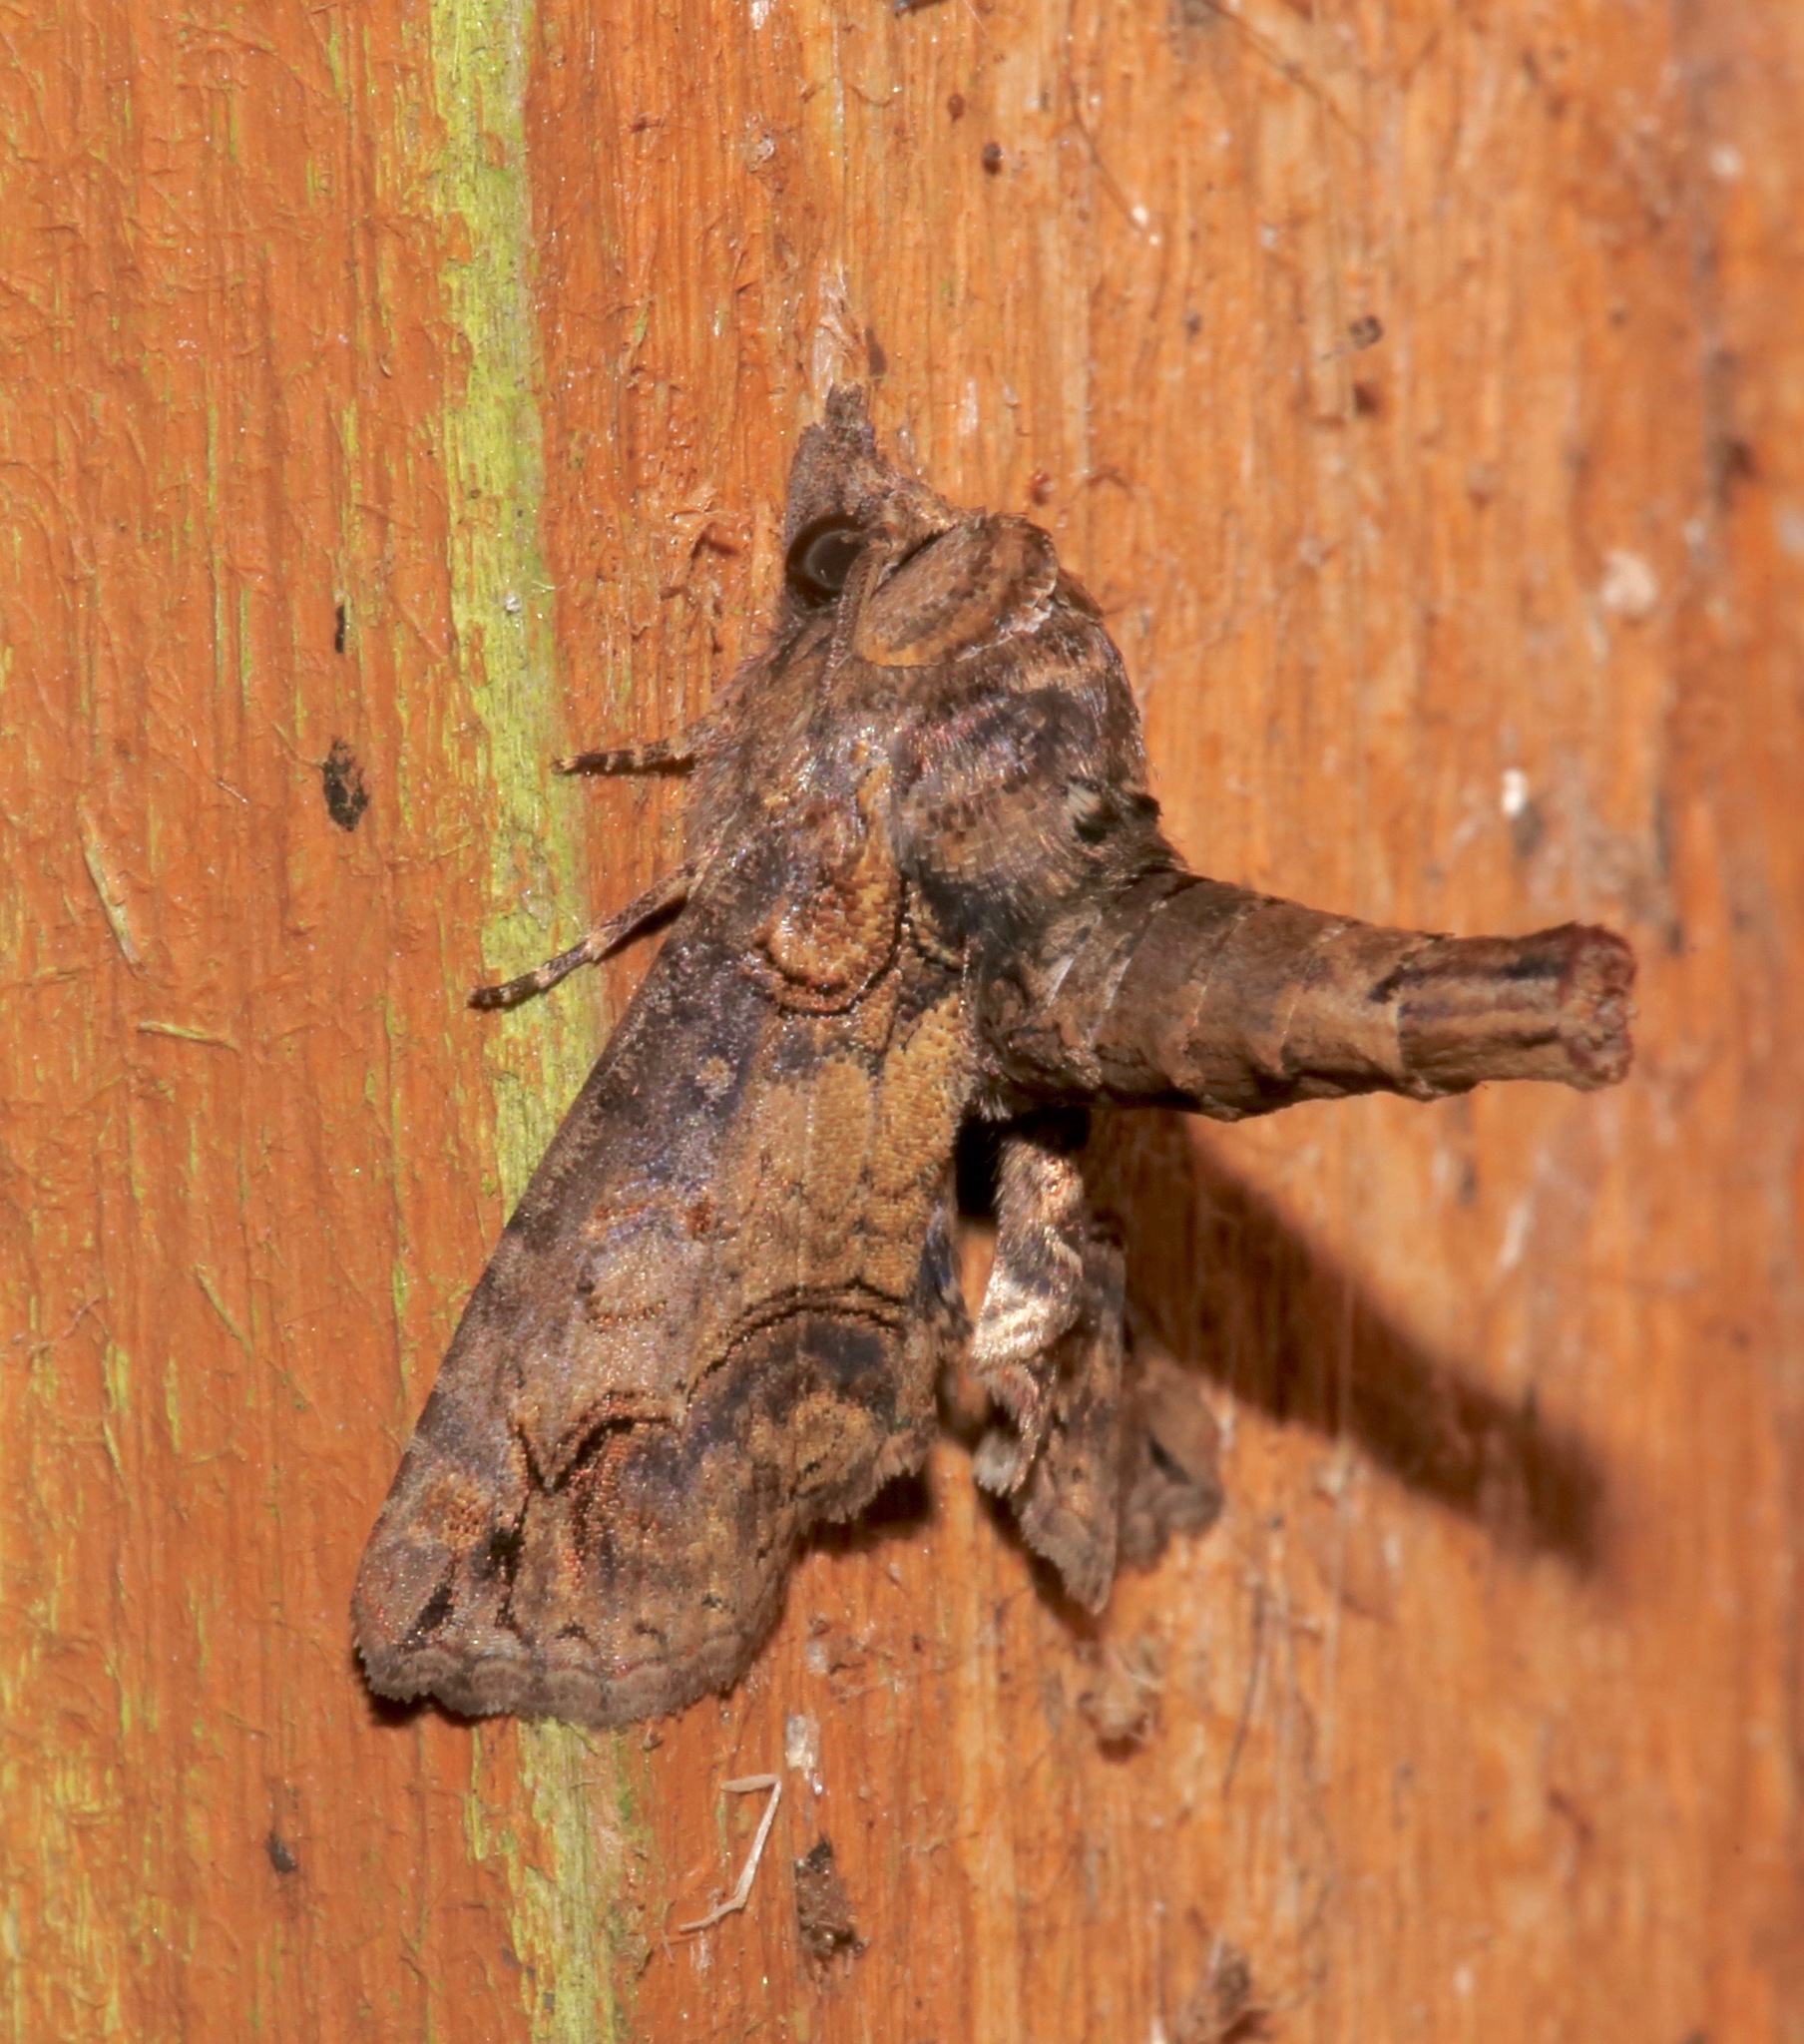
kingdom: Animalia
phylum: Arthropoda
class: Insecta
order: Lepidoptera
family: Euteliidae
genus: Paectes
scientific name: Paectes abrostoloides
